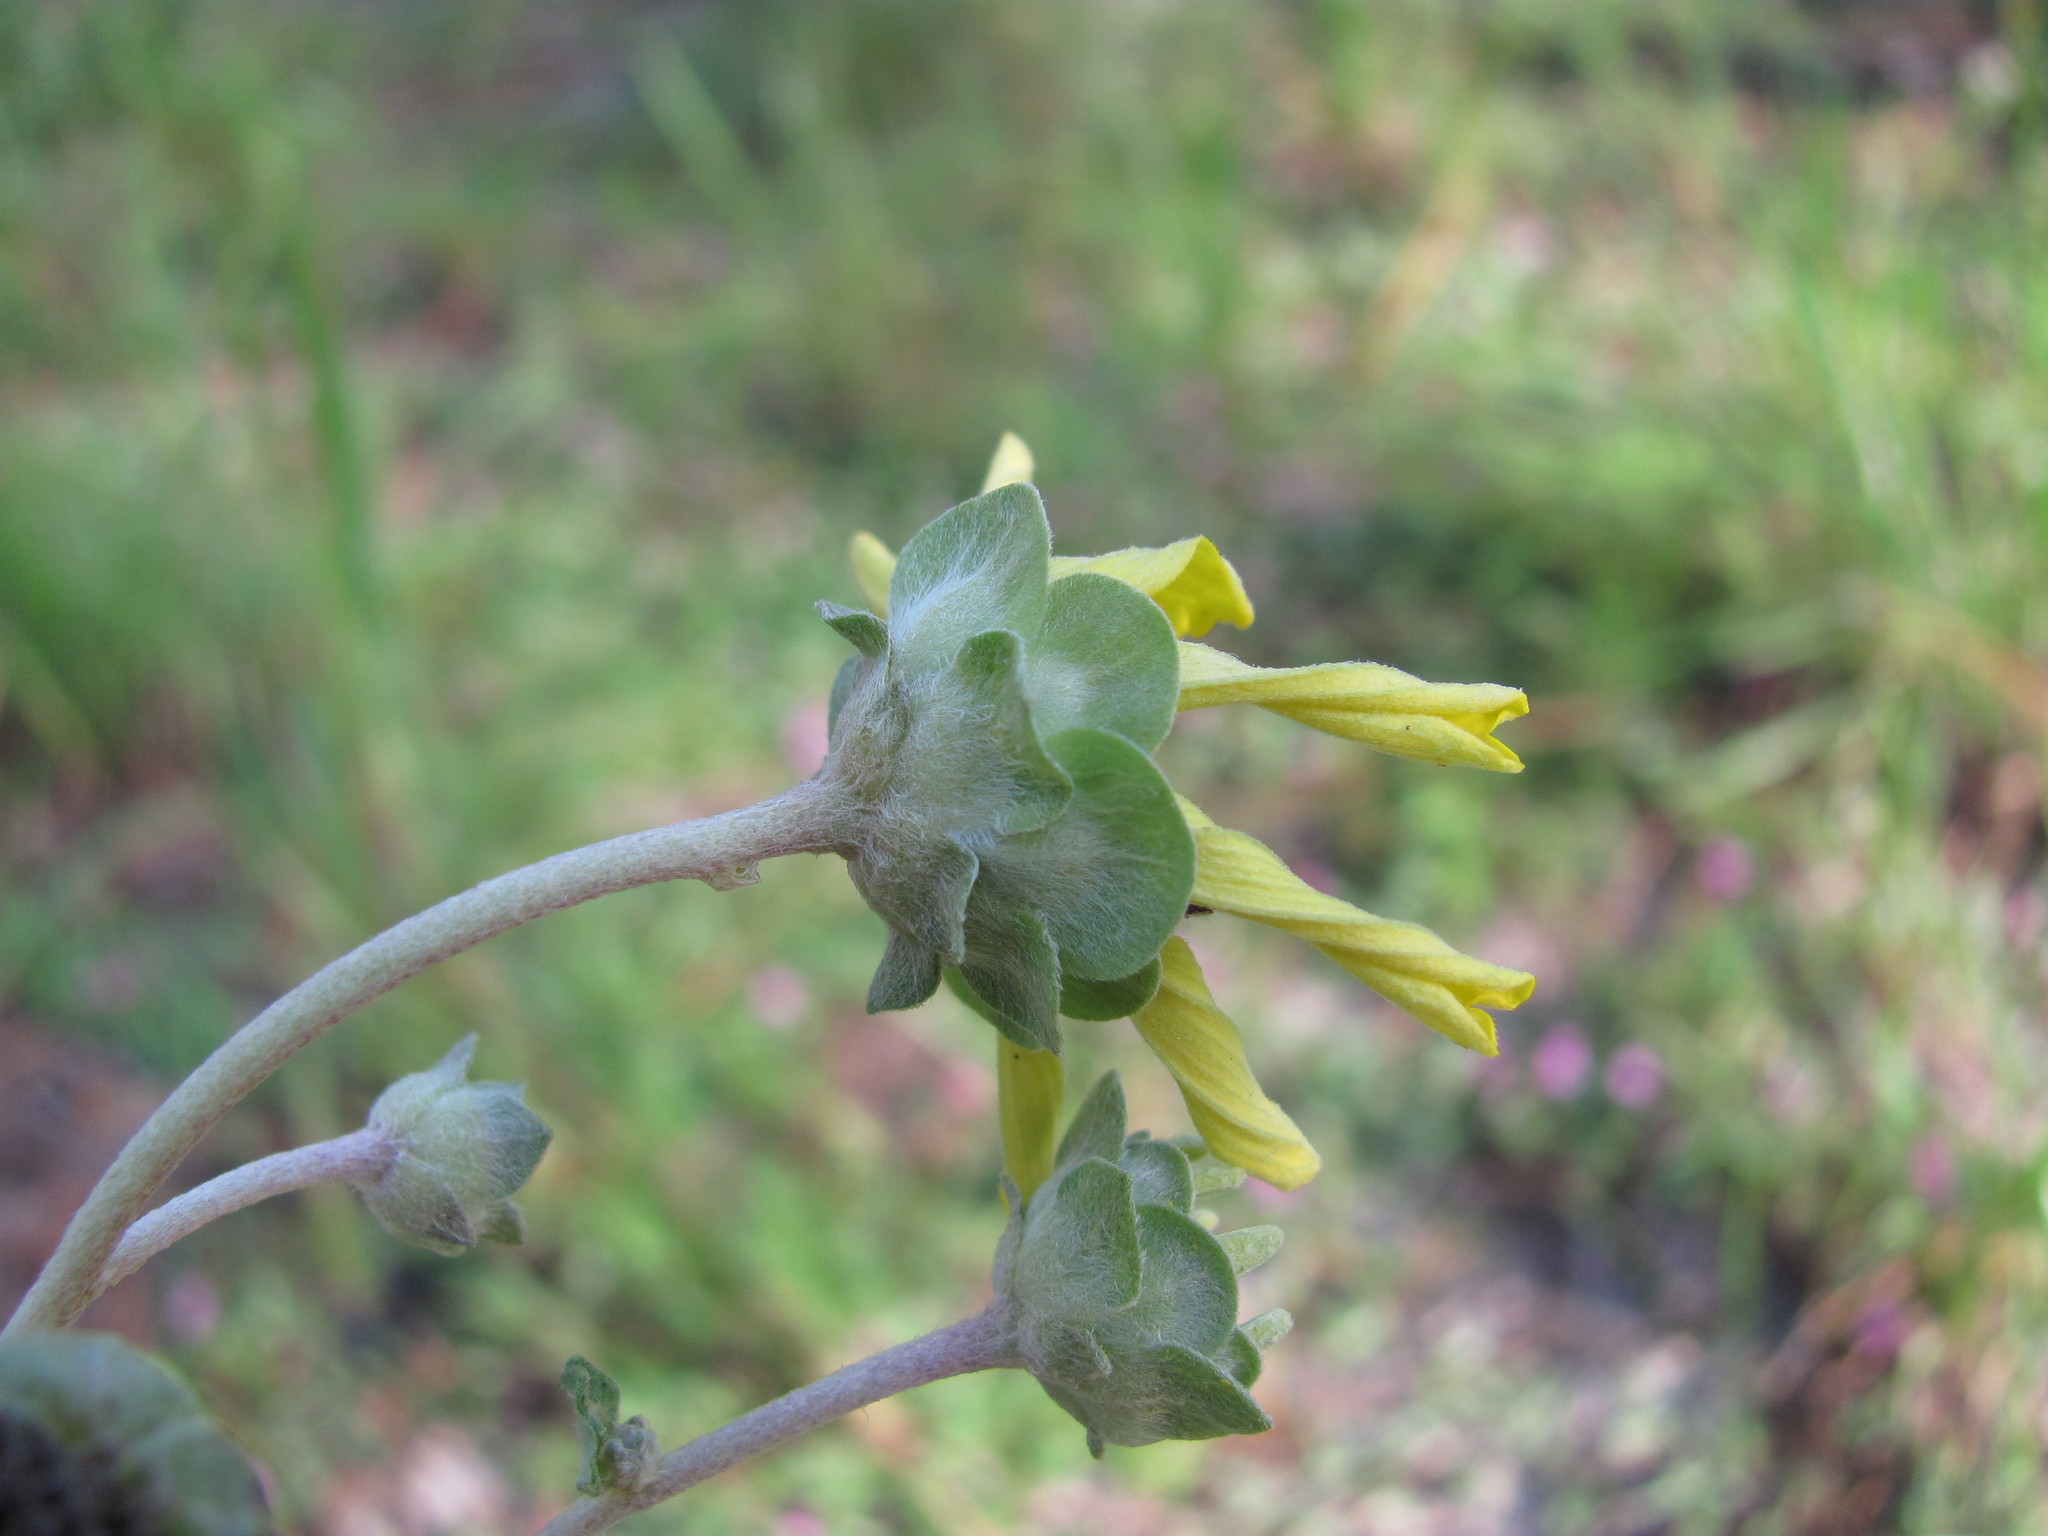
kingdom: Plantae
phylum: Tracheophyta
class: Magnoliopsida
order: Asterales
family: Asteraceae
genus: Berlandiera
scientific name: Berlandiera pumila
